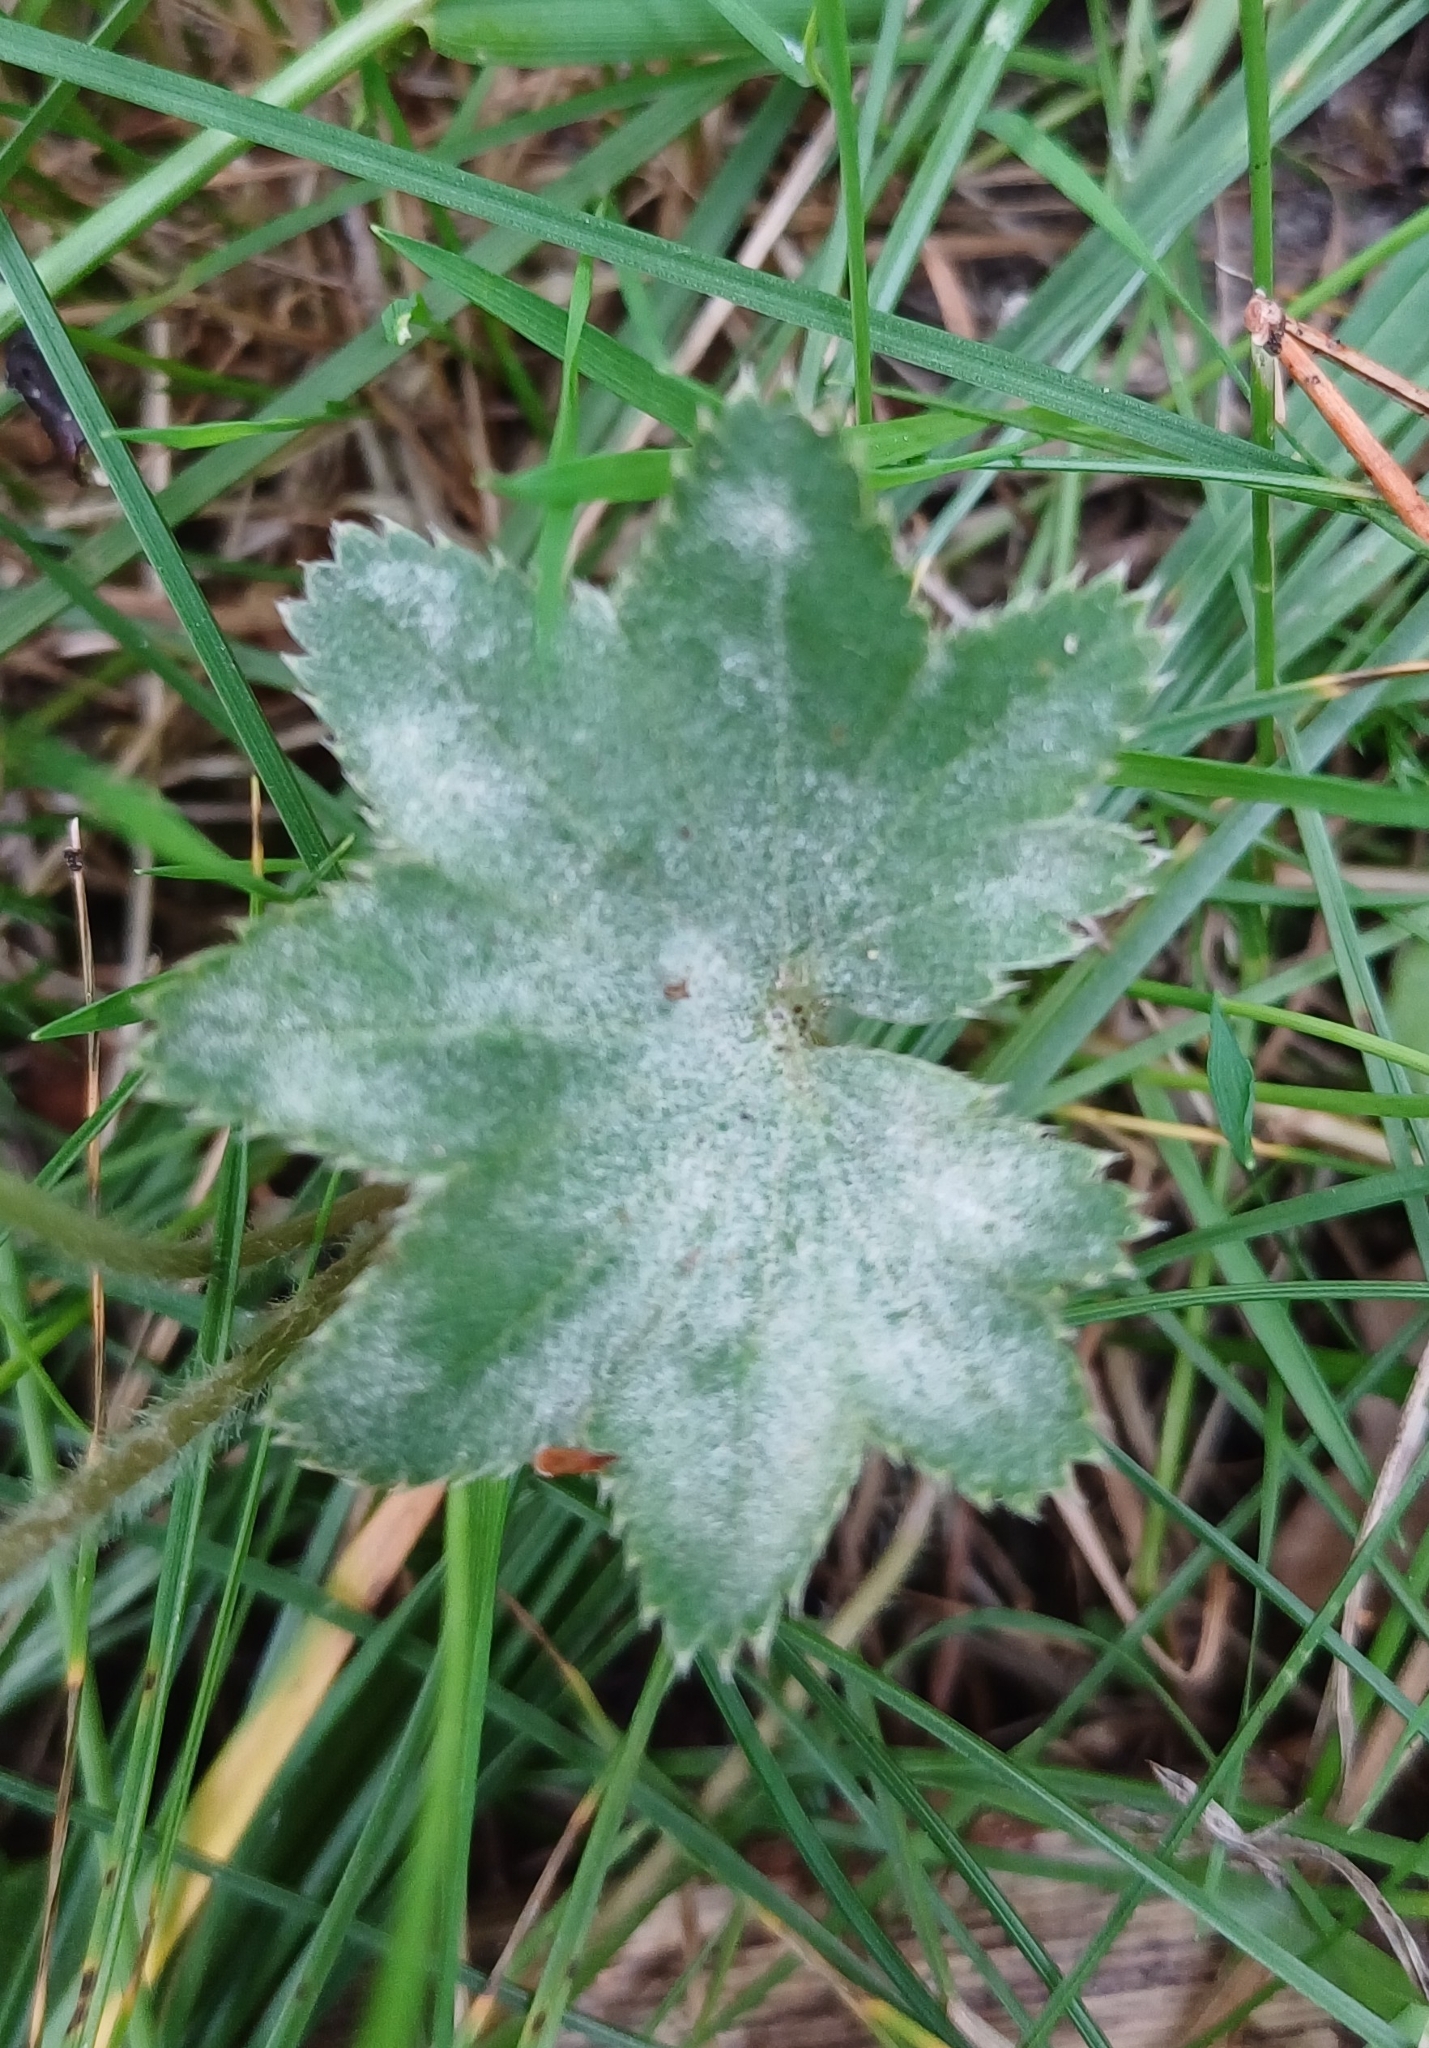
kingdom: Fungi
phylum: Ascomycota
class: Leotiomycetes
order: Helotiales
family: Erysiphaceae
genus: Podosphaera
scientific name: Podosphaera aphanis
